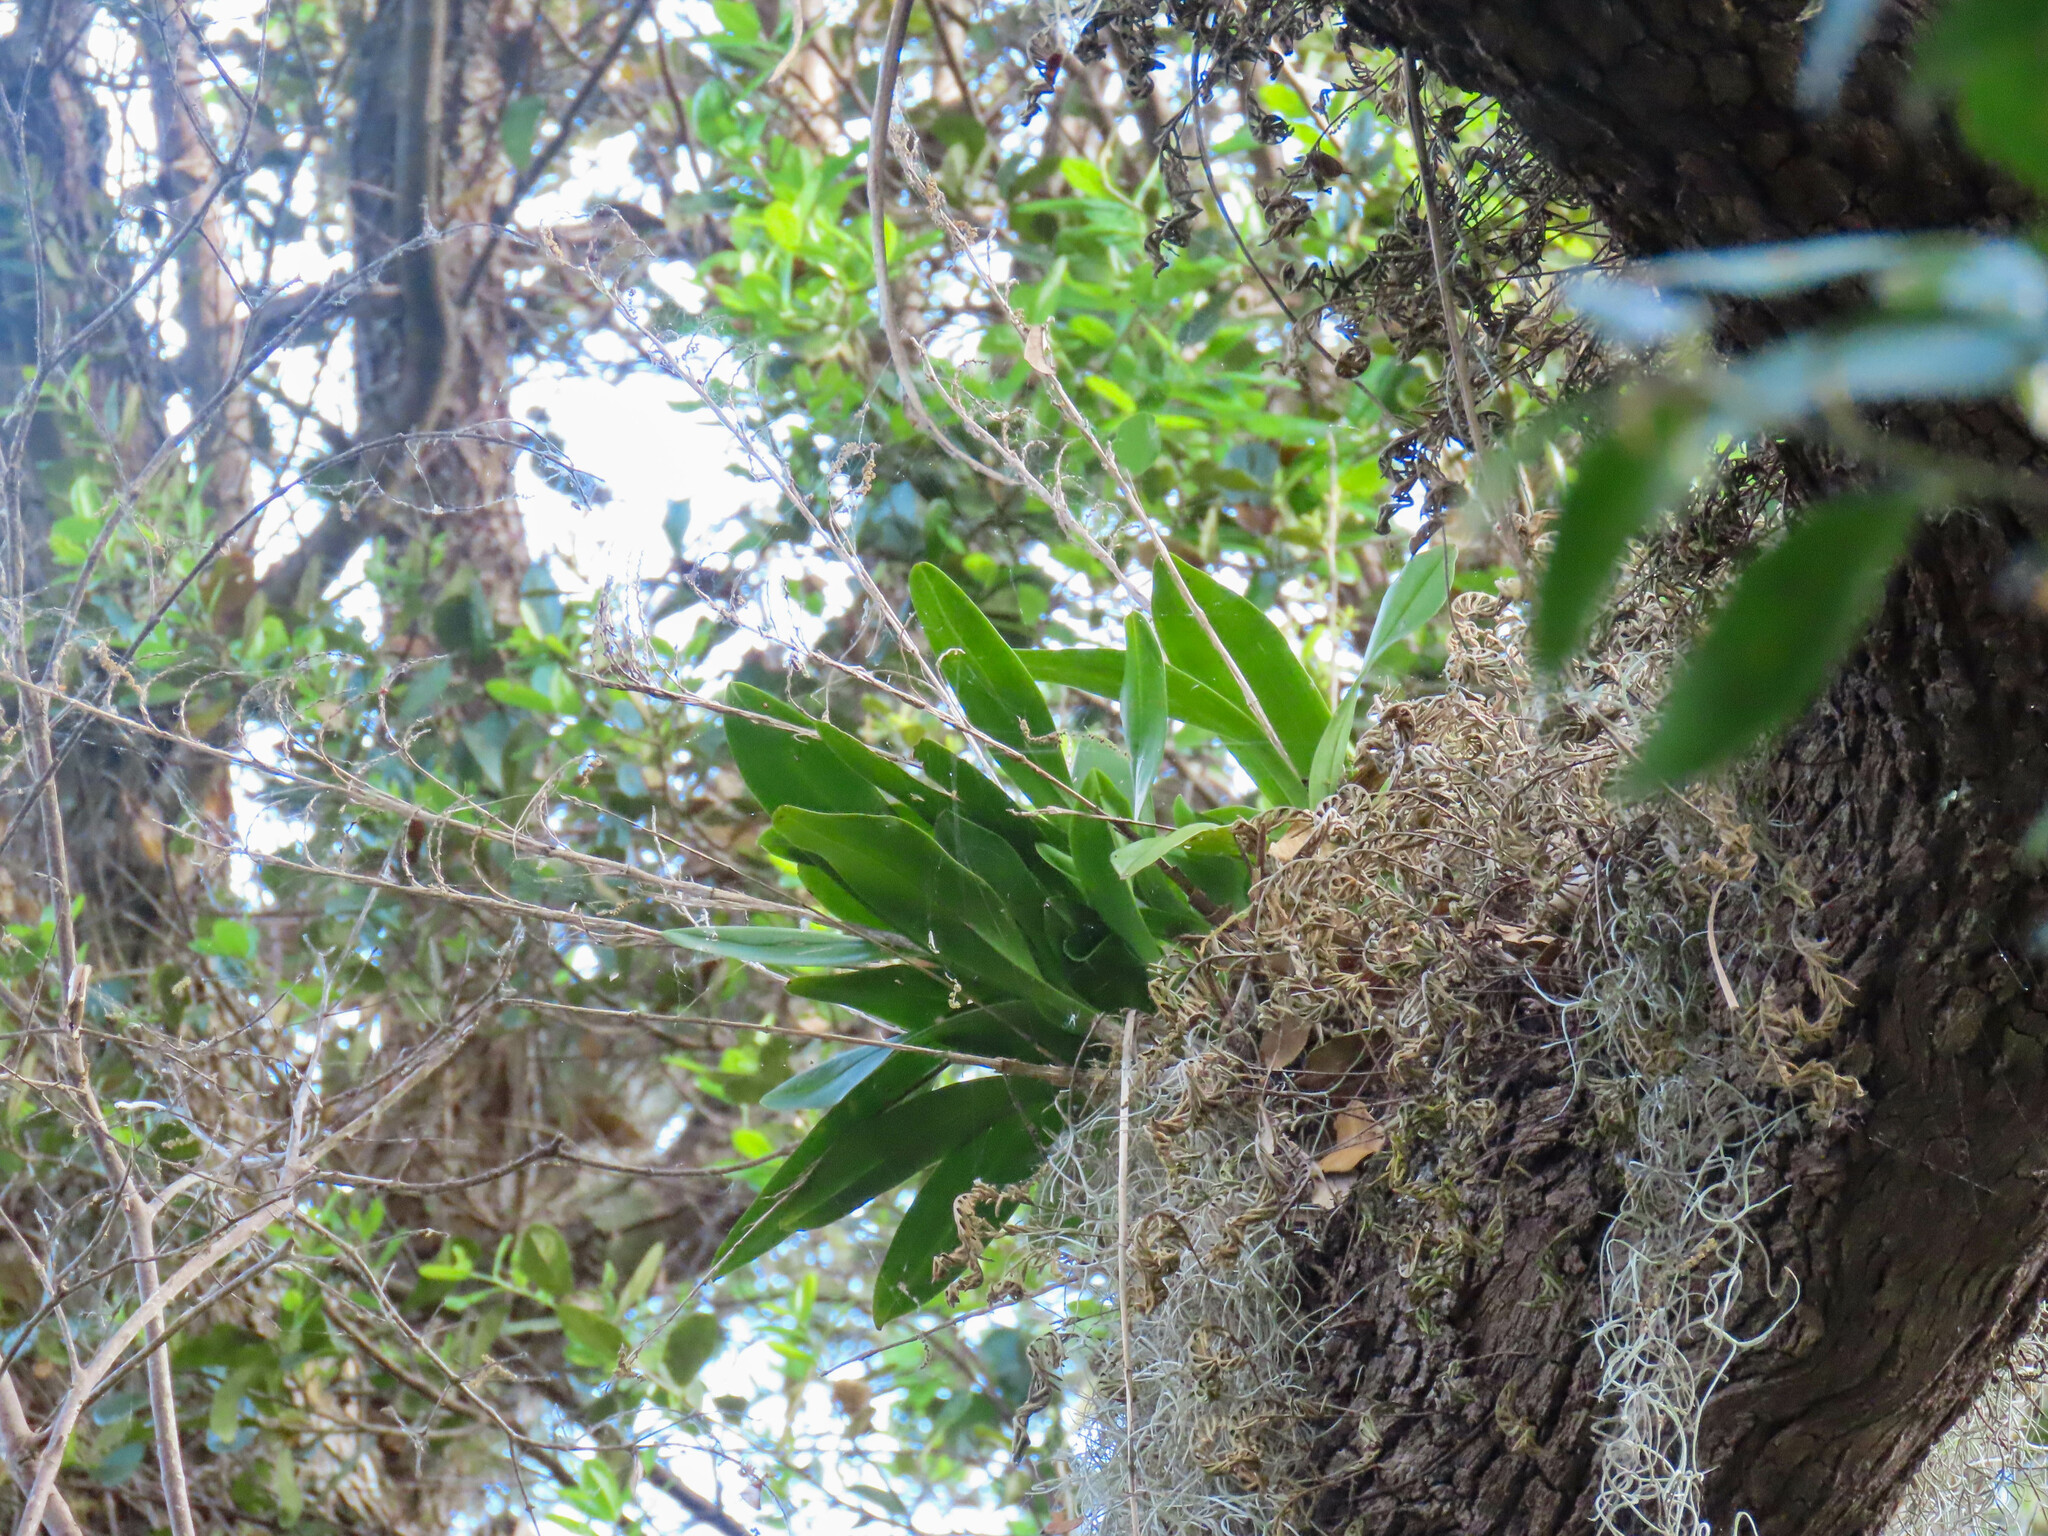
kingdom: Plantae
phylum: Tracheophyta
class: Liliopsida
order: Asparagales
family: Orchidaceae
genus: Polystachya
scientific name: Polystachya concreta
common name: Greater yellowspike orchid
